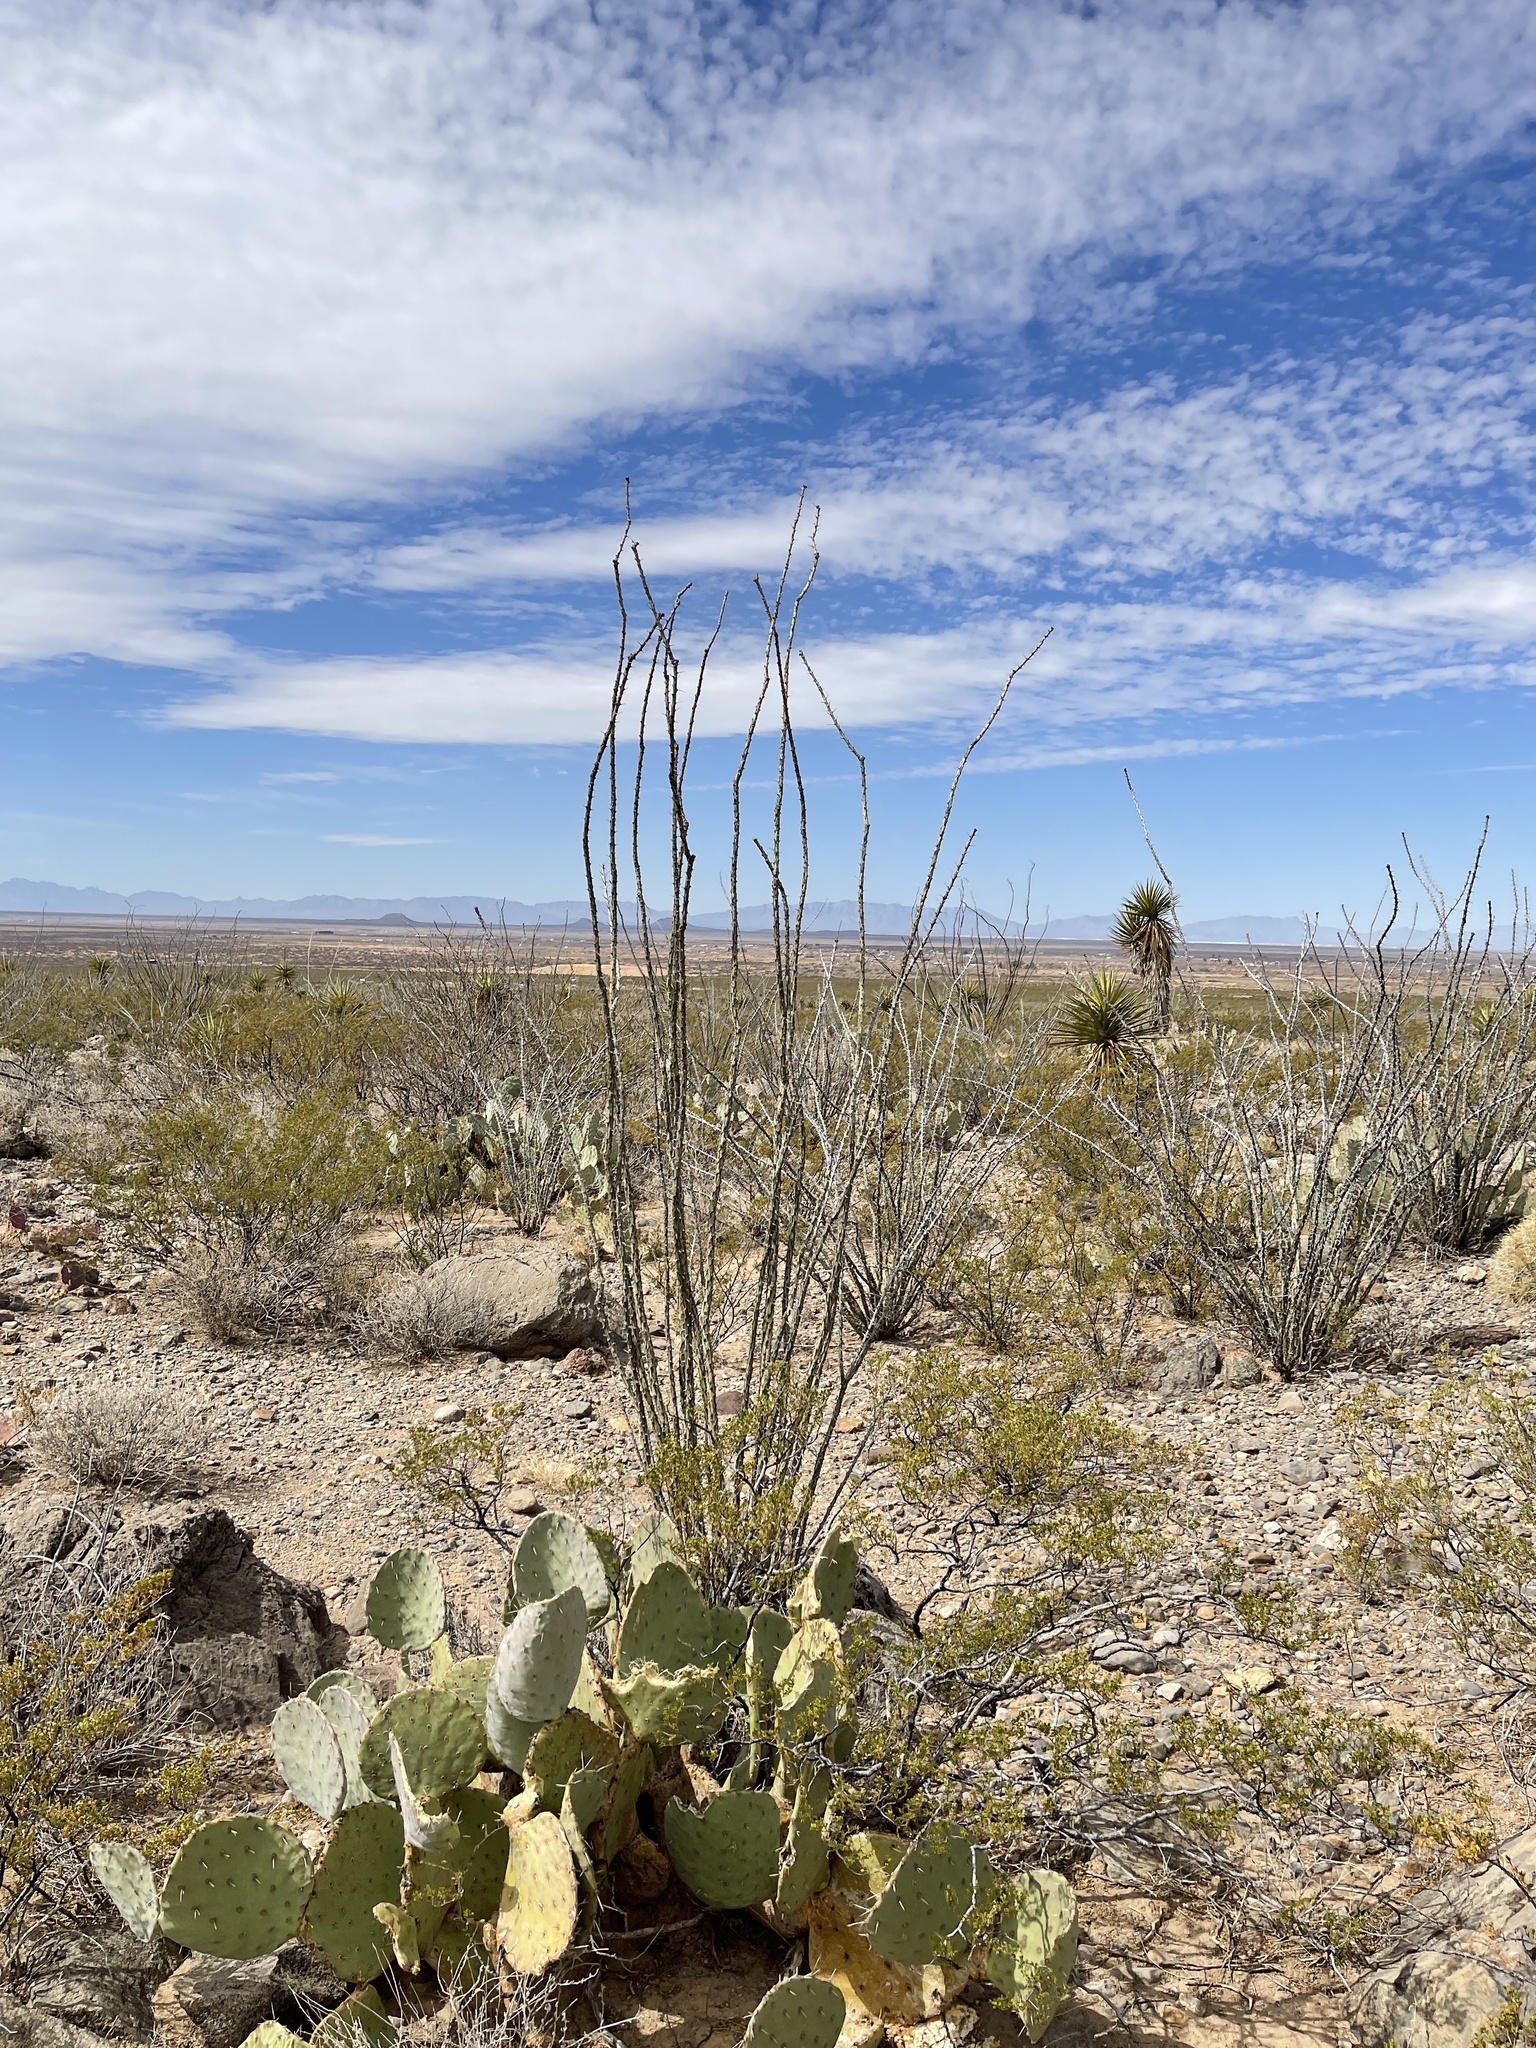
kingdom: Plantae
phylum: Tracheophyta
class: Magnoliopsida
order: Ericales
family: Fouquieriaceae
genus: Fouquieria
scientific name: Fouquieria splendens
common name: Vine-cactus
